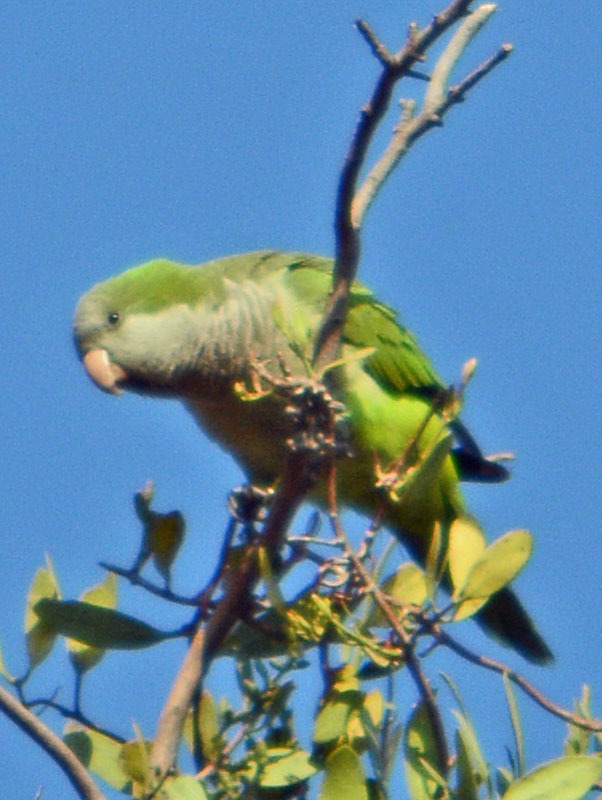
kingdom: Animalia
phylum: Chordata
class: Aves
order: Psittaciformes
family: Psittacidae
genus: Myiopsitta
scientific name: Myiopsitta monachus
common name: Monk parakeet
